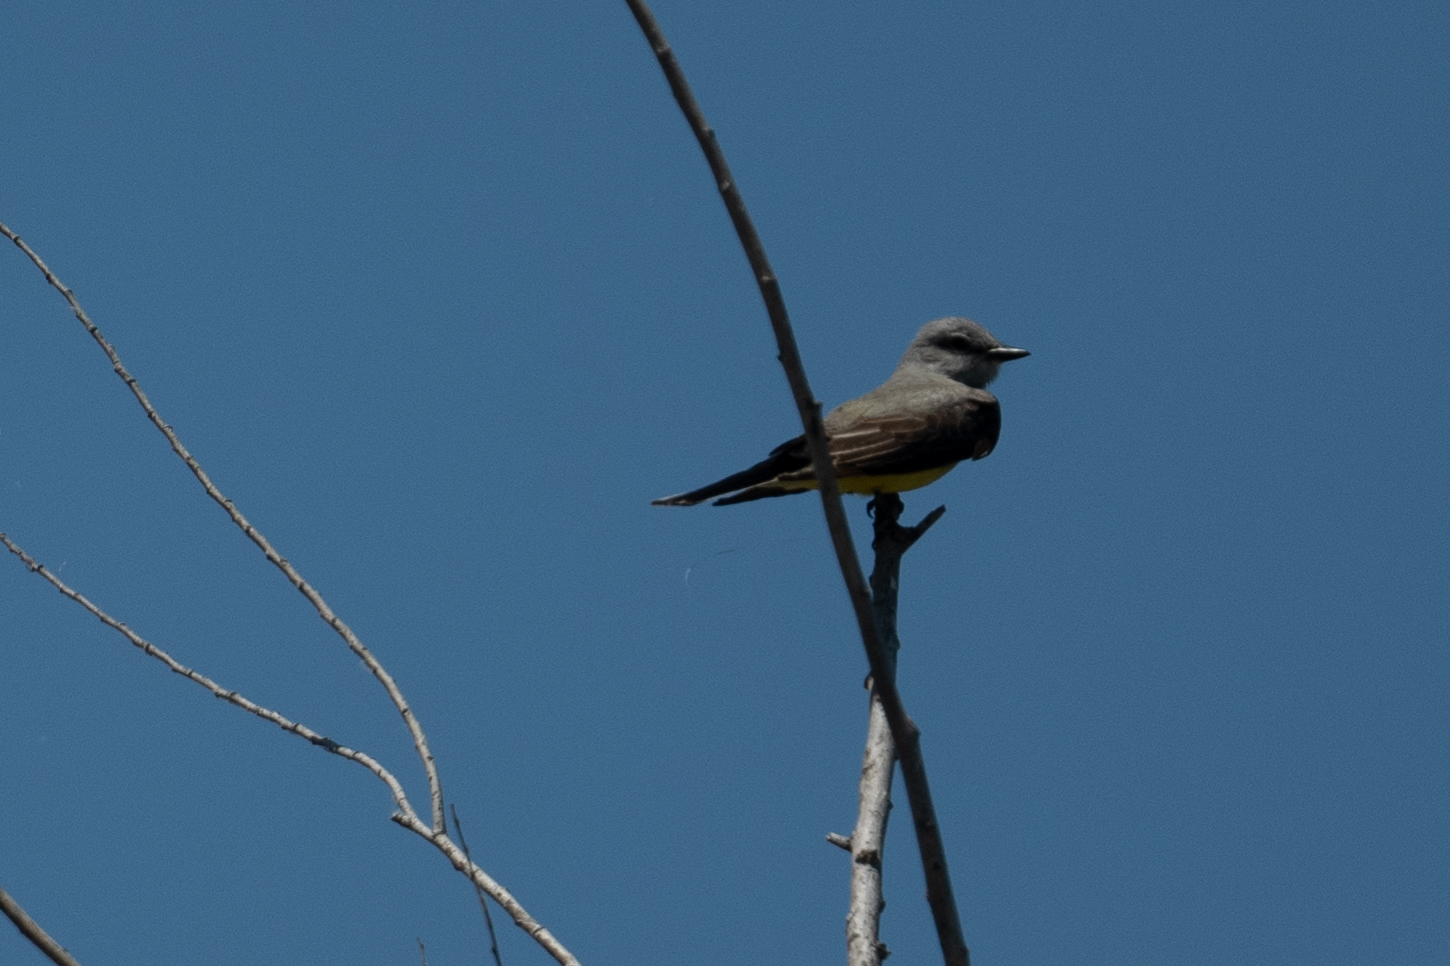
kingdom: Animalia
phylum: Chordata
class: Aves
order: Passeriformes
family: Tyrannidae
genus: Tyrannus
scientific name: Tyrannus verticalis
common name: Western kingbird
